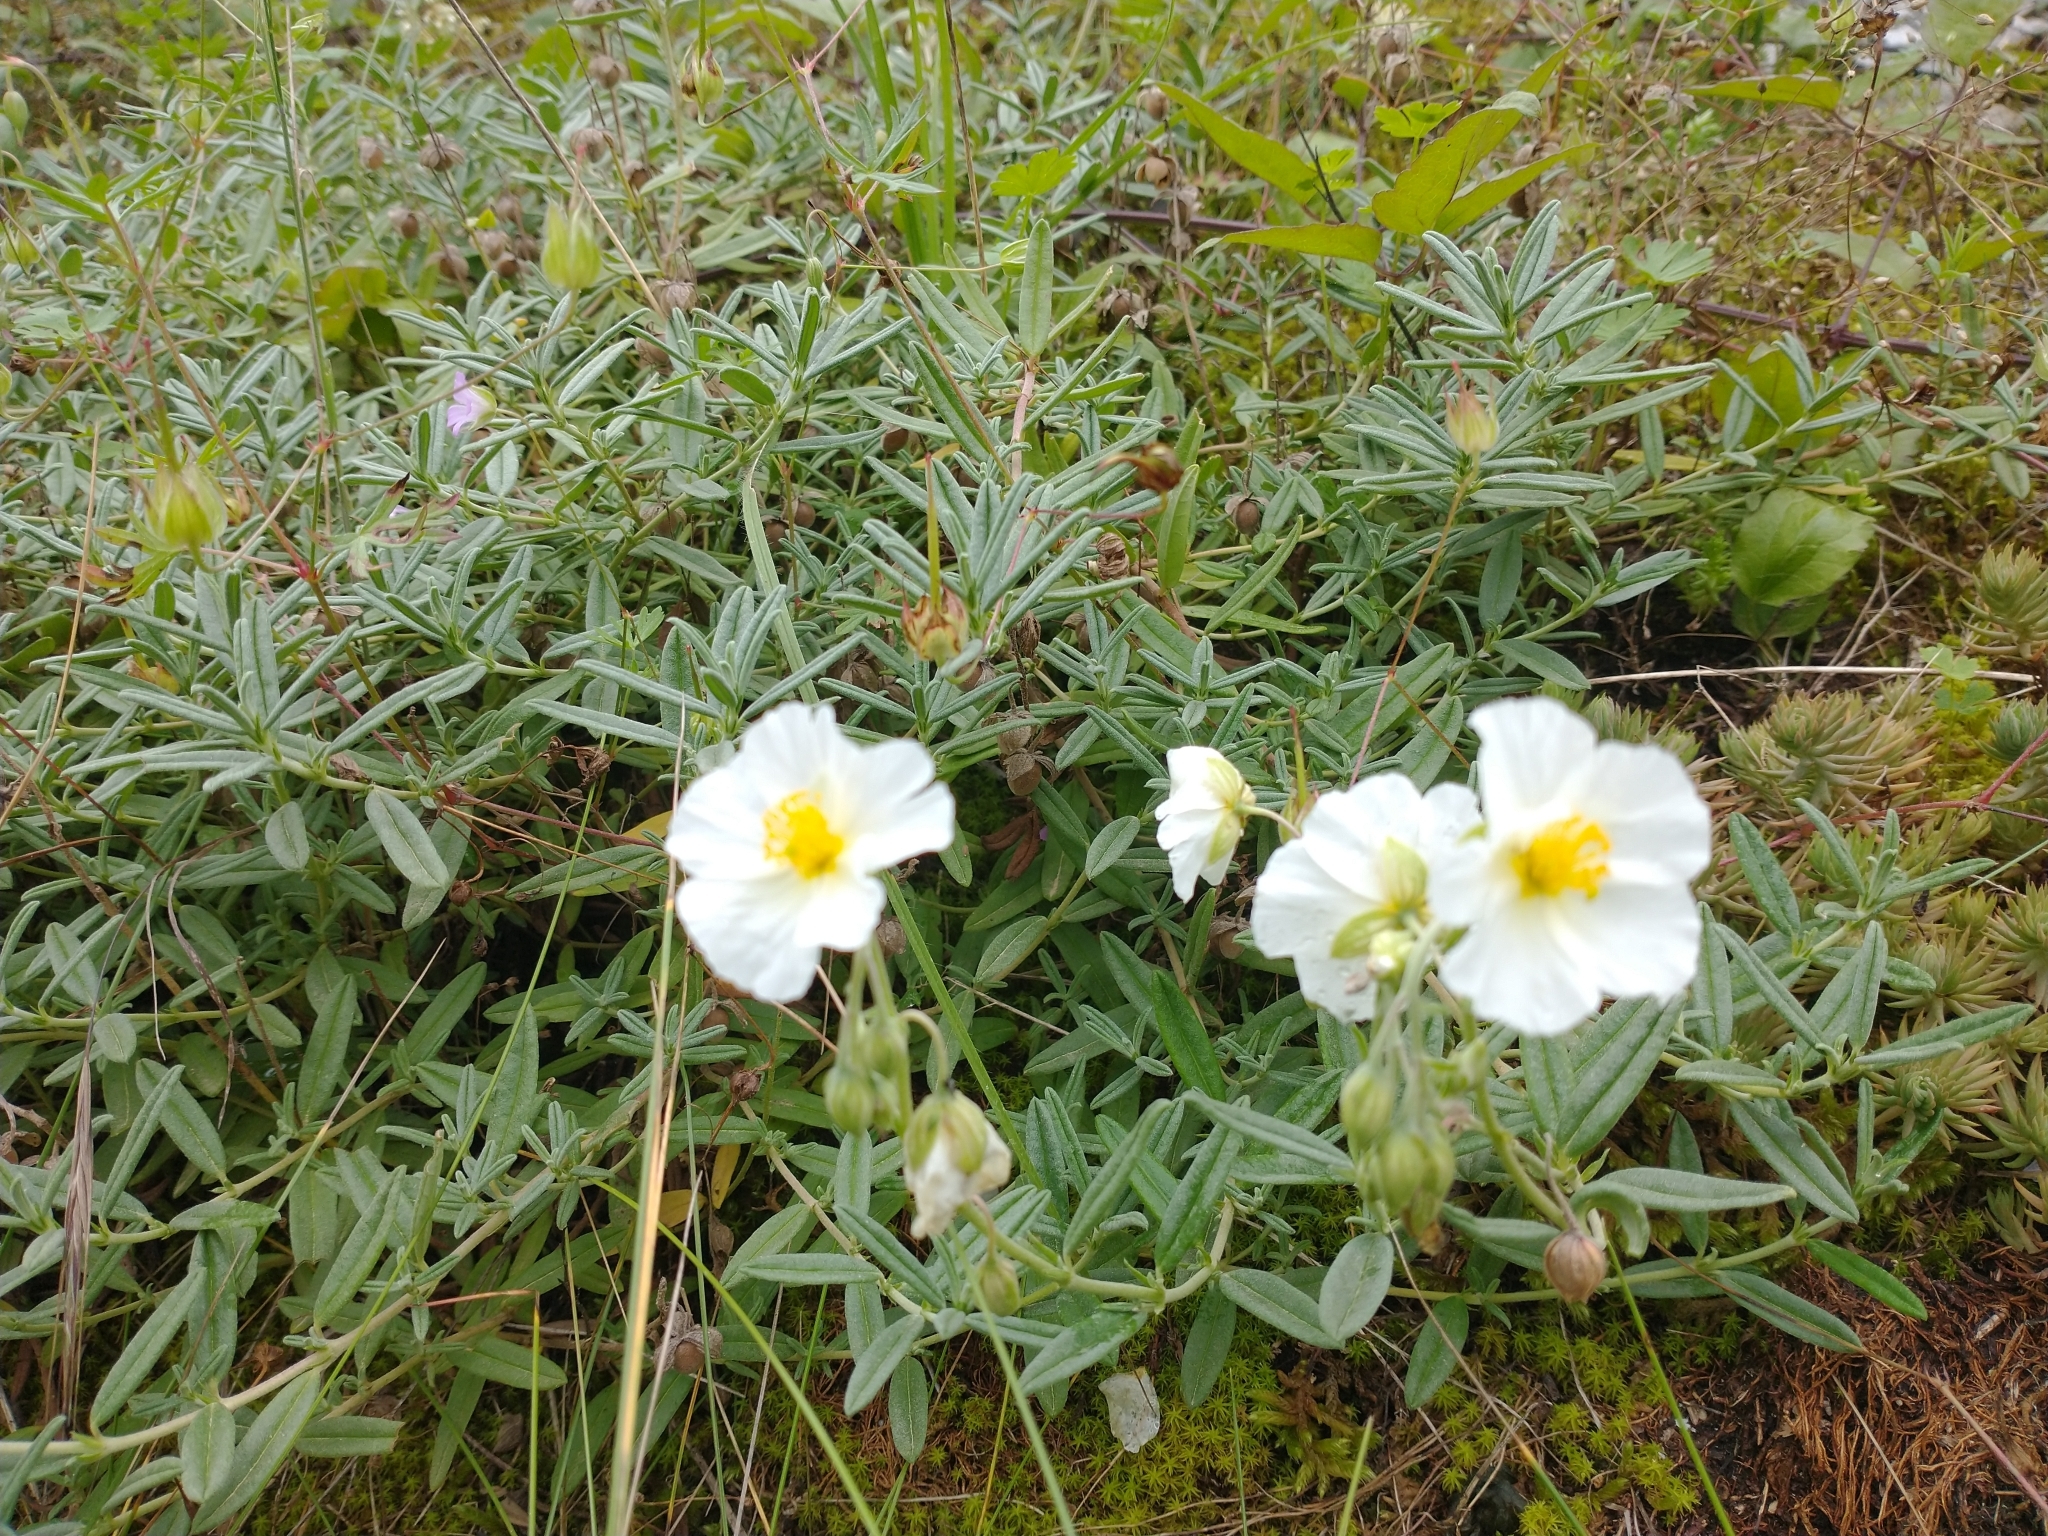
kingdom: Plantae
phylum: Tracheophyta
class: Magnoliopsida
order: Malvales
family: Cistaceae
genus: Helianthemum
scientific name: Helianthemum apenninum
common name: White rock-rose
